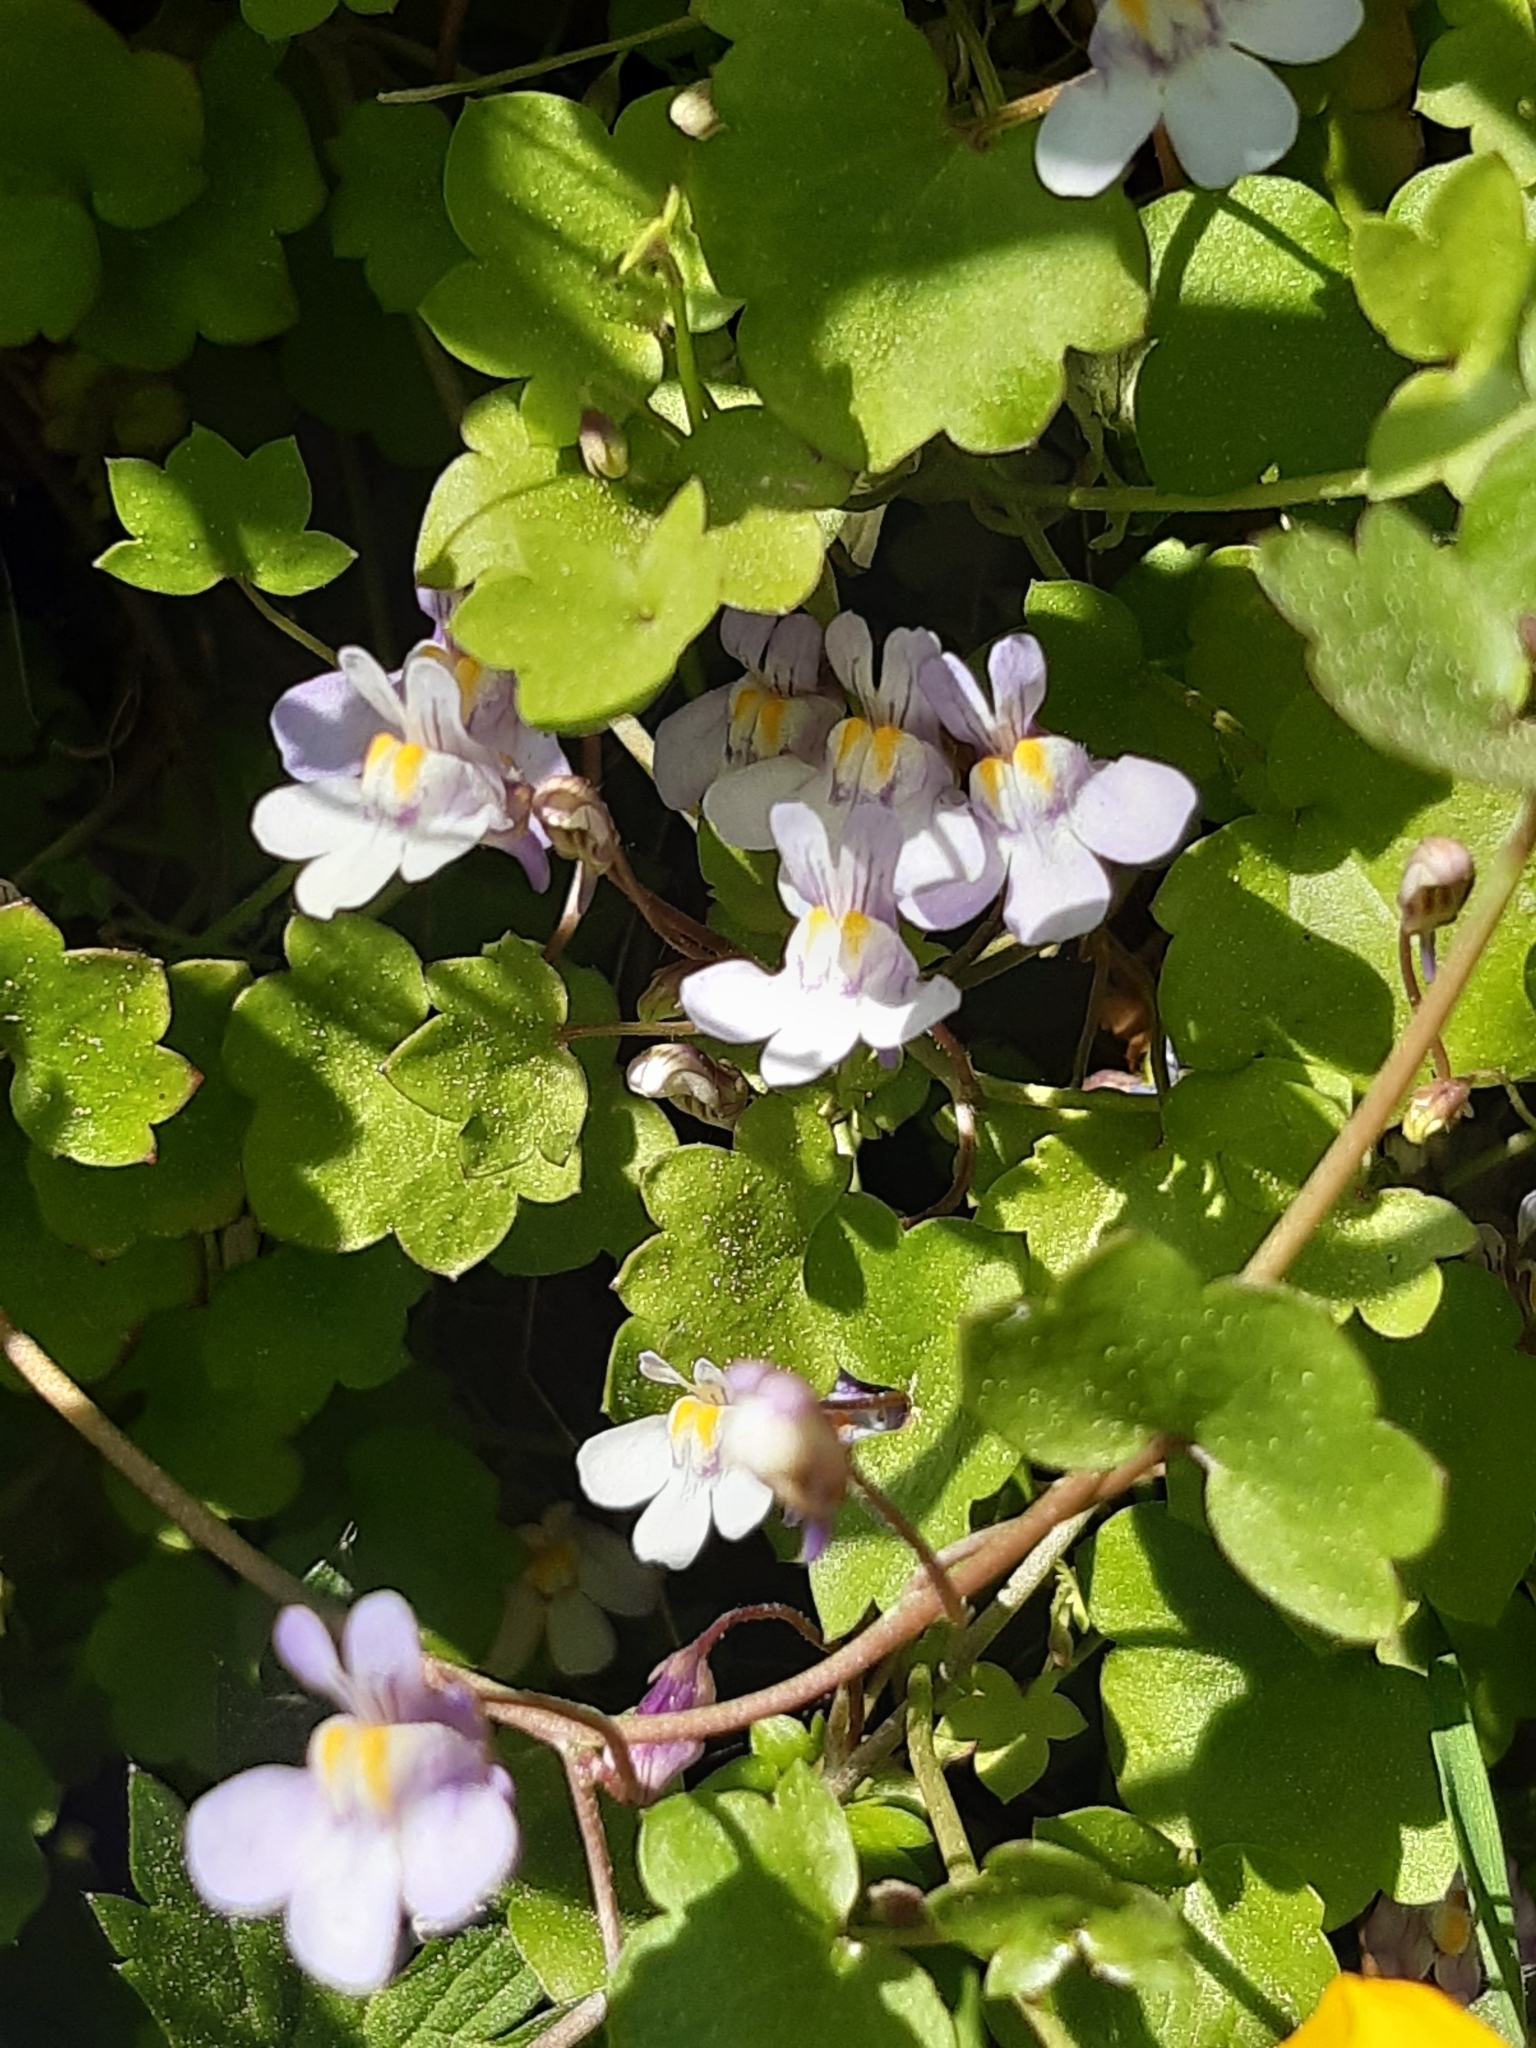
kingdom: Plantae
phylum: Tracheophyta
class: Magnoliopsida
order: Lamiales
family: Plantaginaceae
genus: Cymbalaria
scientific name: Cymbalaria muralis
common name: Ivy-leaved toadflax
